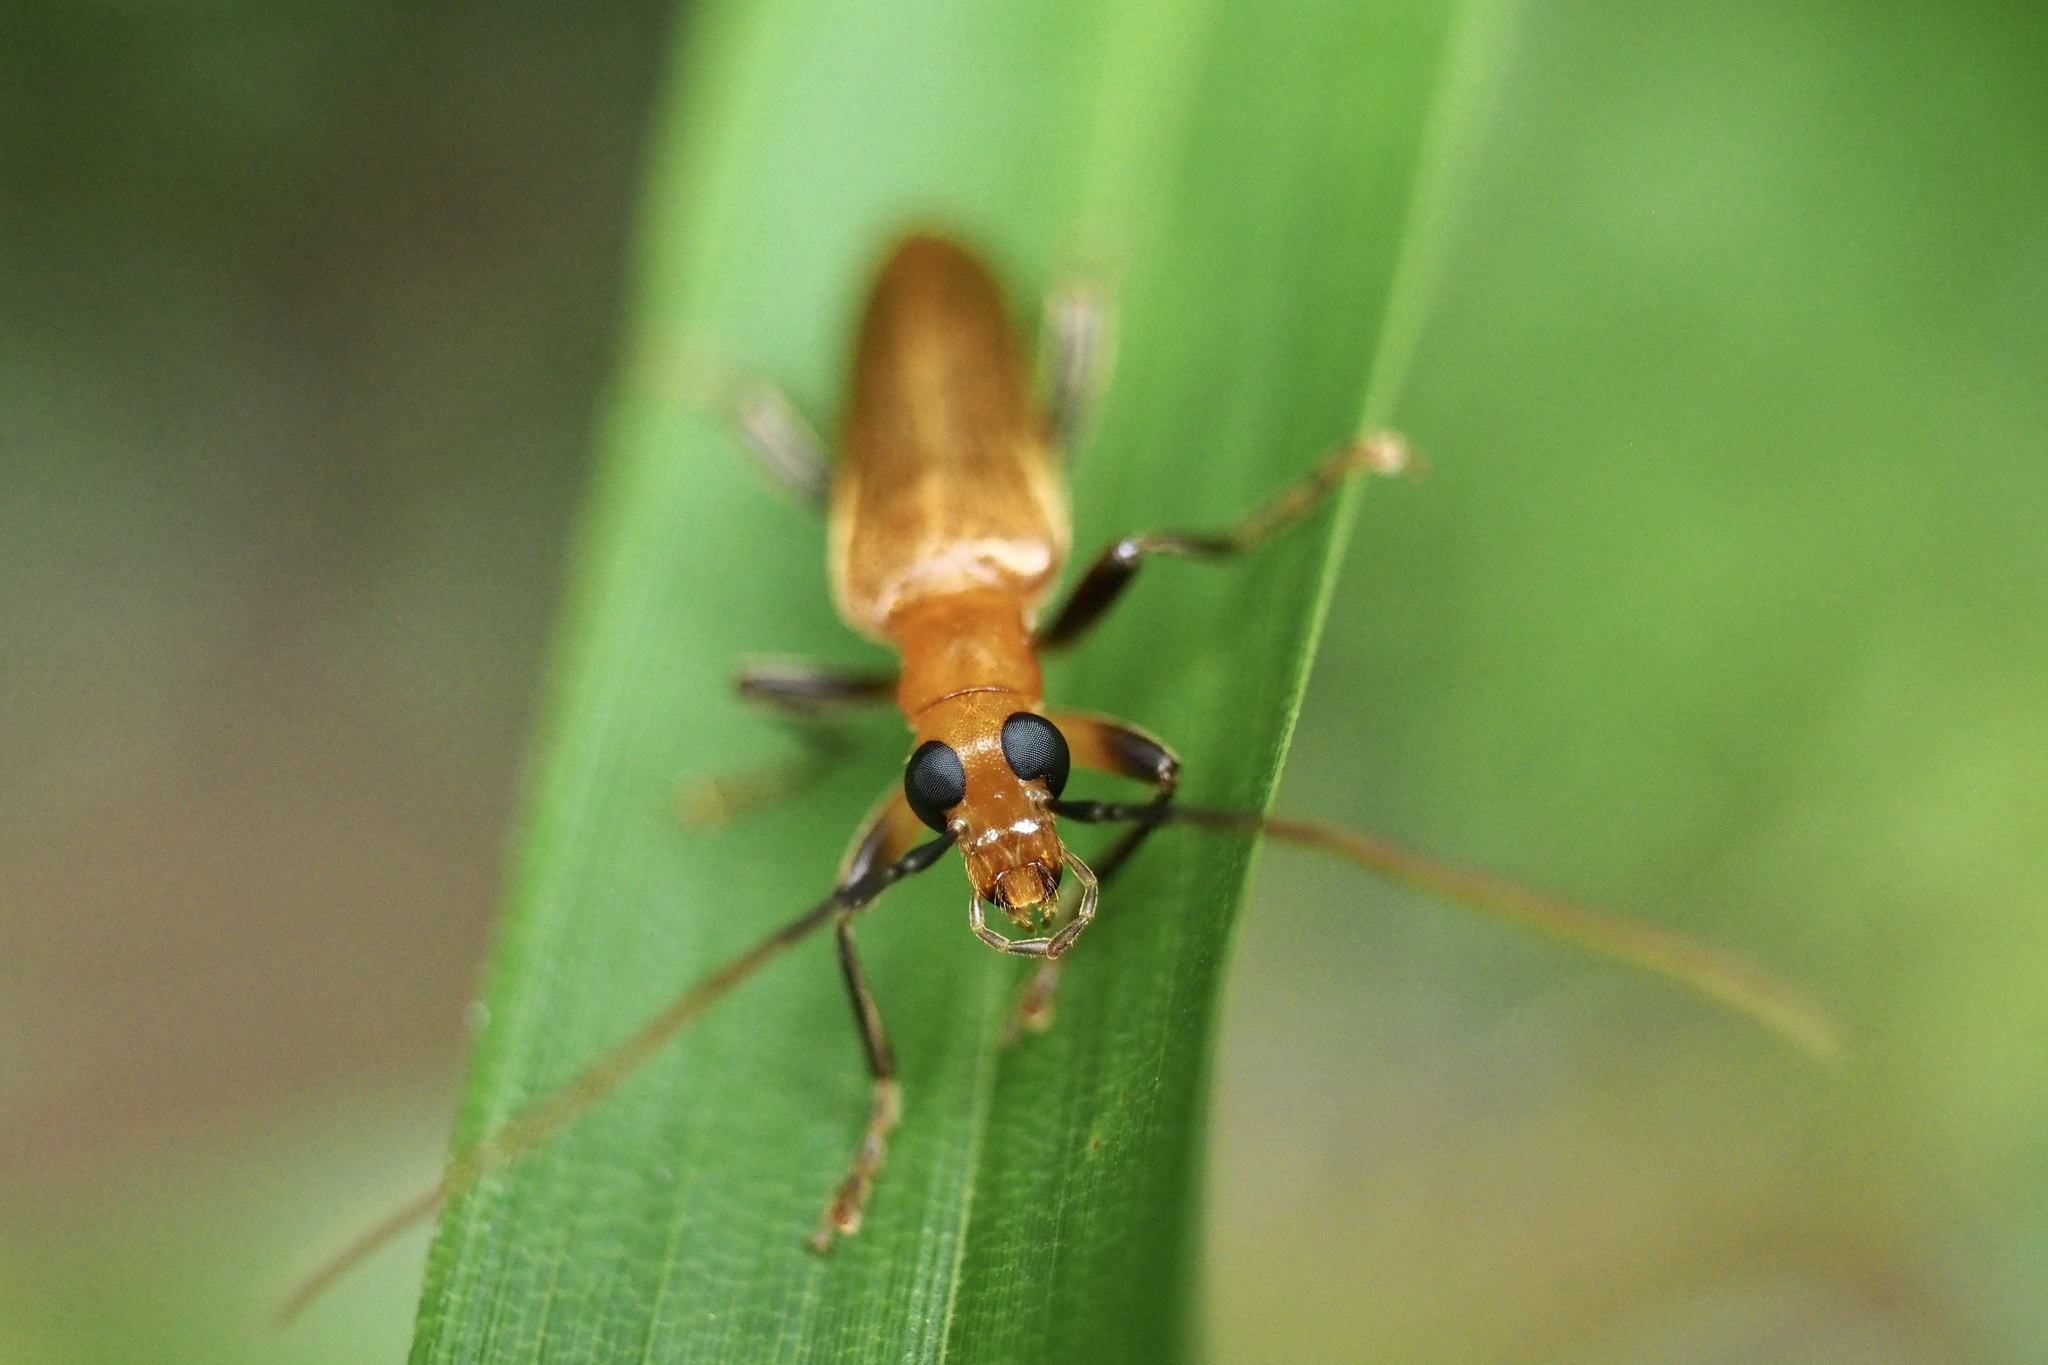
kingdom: Animalia
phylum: Arthropoda
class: Insecta
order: Coleoptera
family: Oedemeridae
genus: Nacerdes
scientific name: Nacerdes
